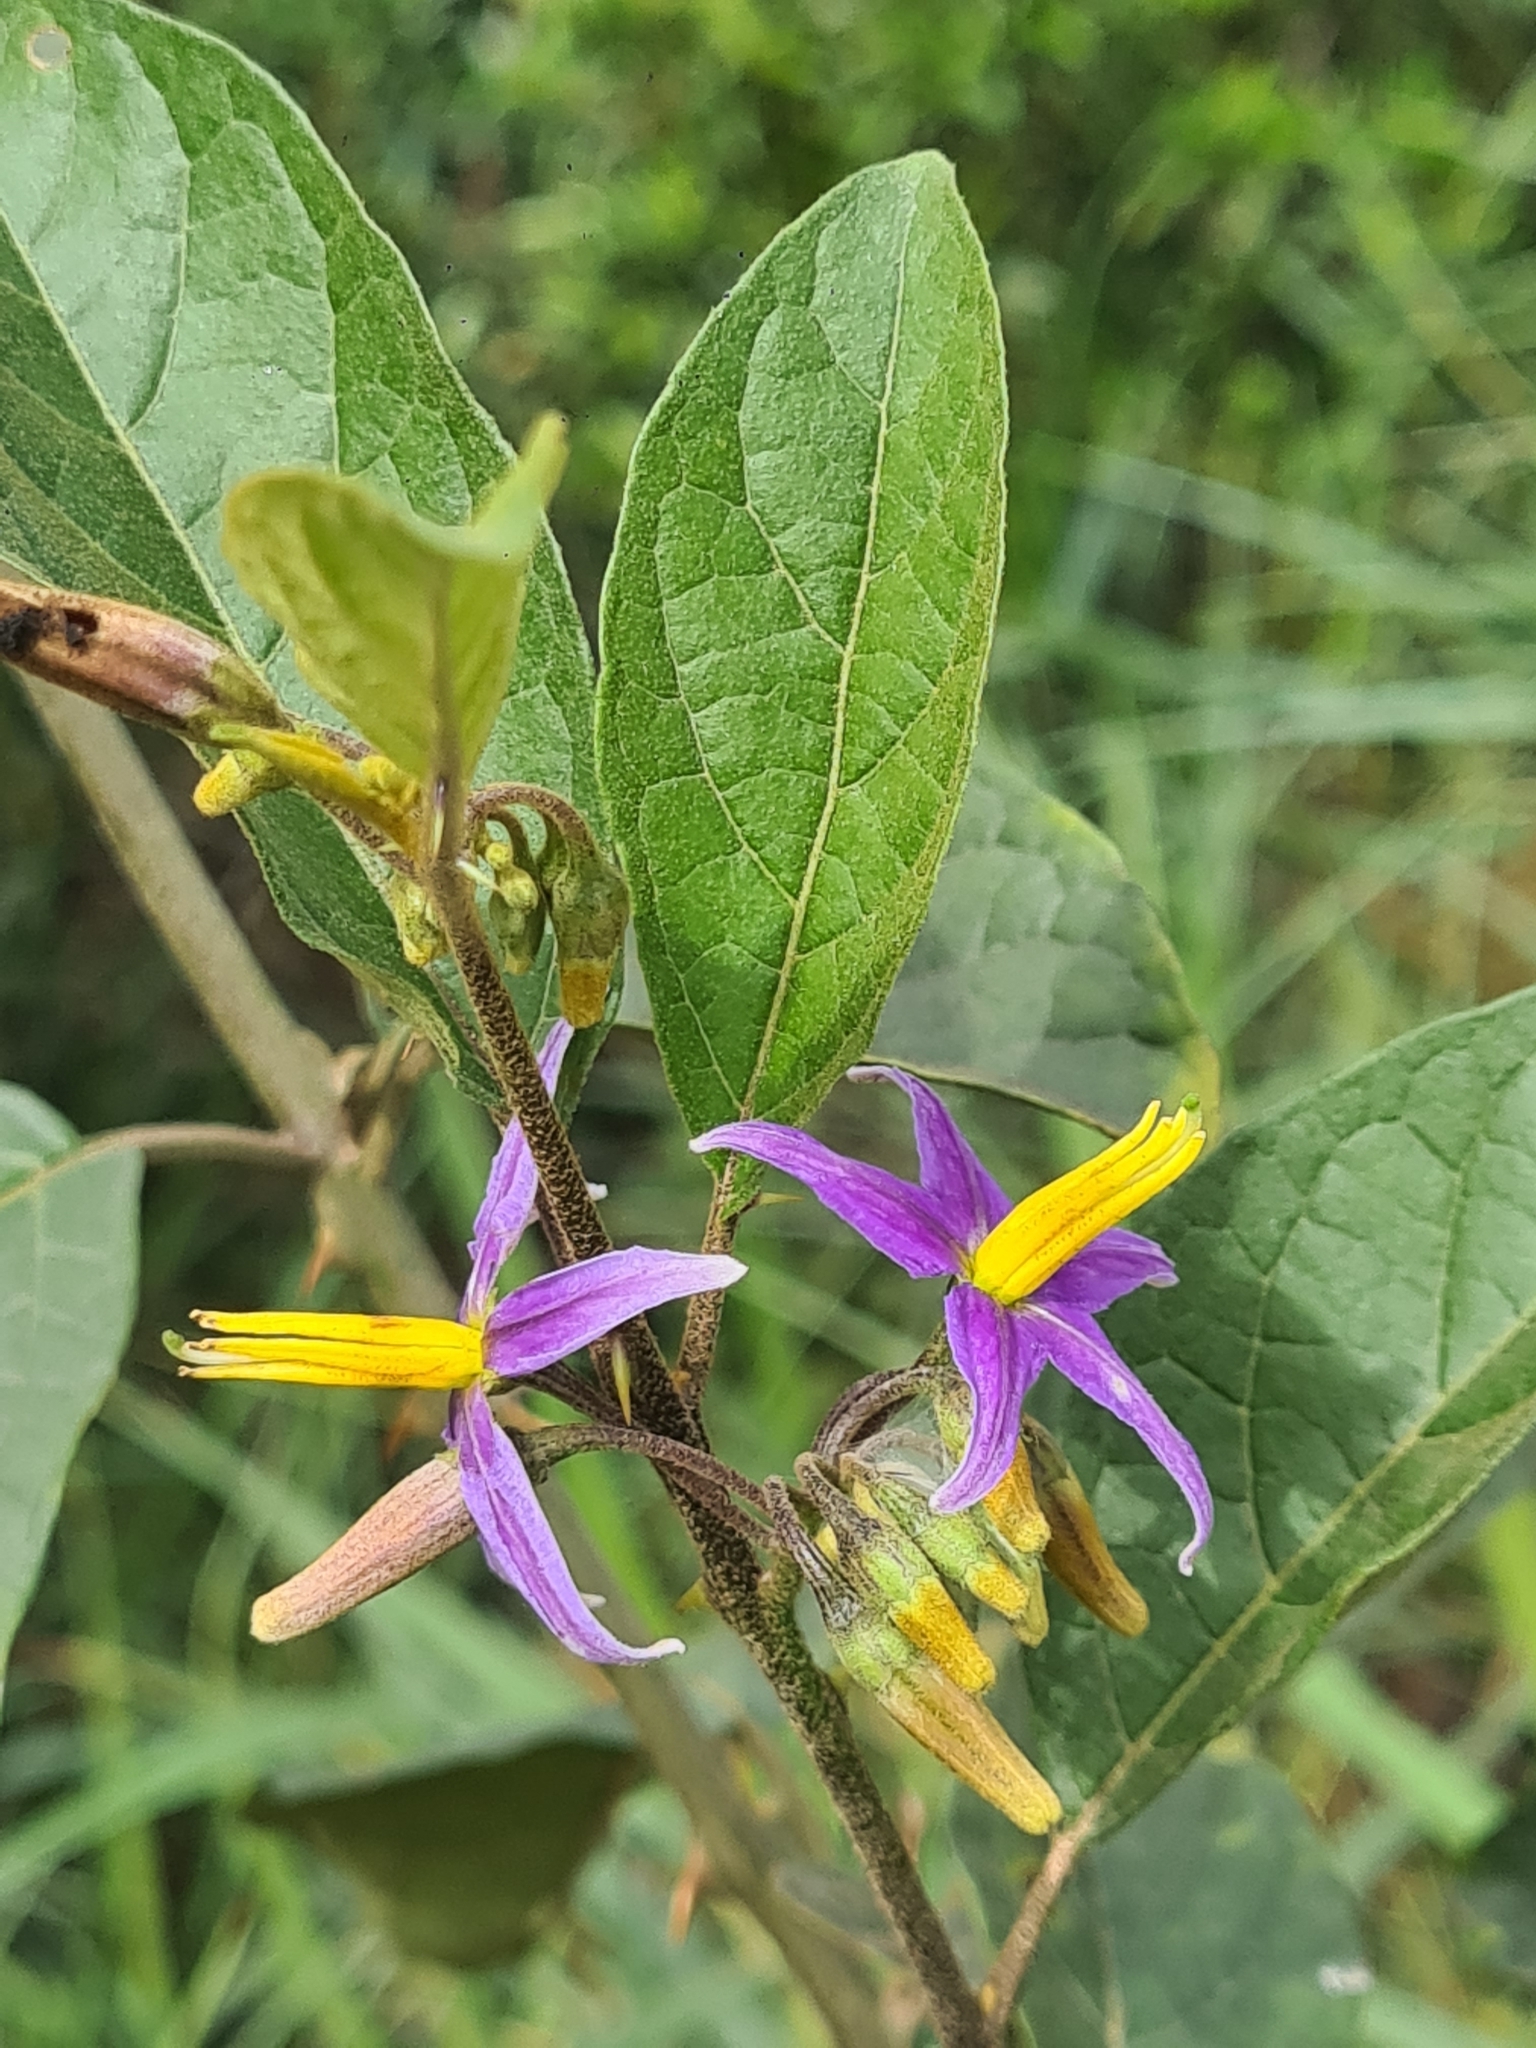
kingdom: Plantae
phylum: Tracheophyta
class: Magnoliopsida
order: Solanales
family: Solanaceae
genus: Solanum
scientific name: Solanum subinerme
